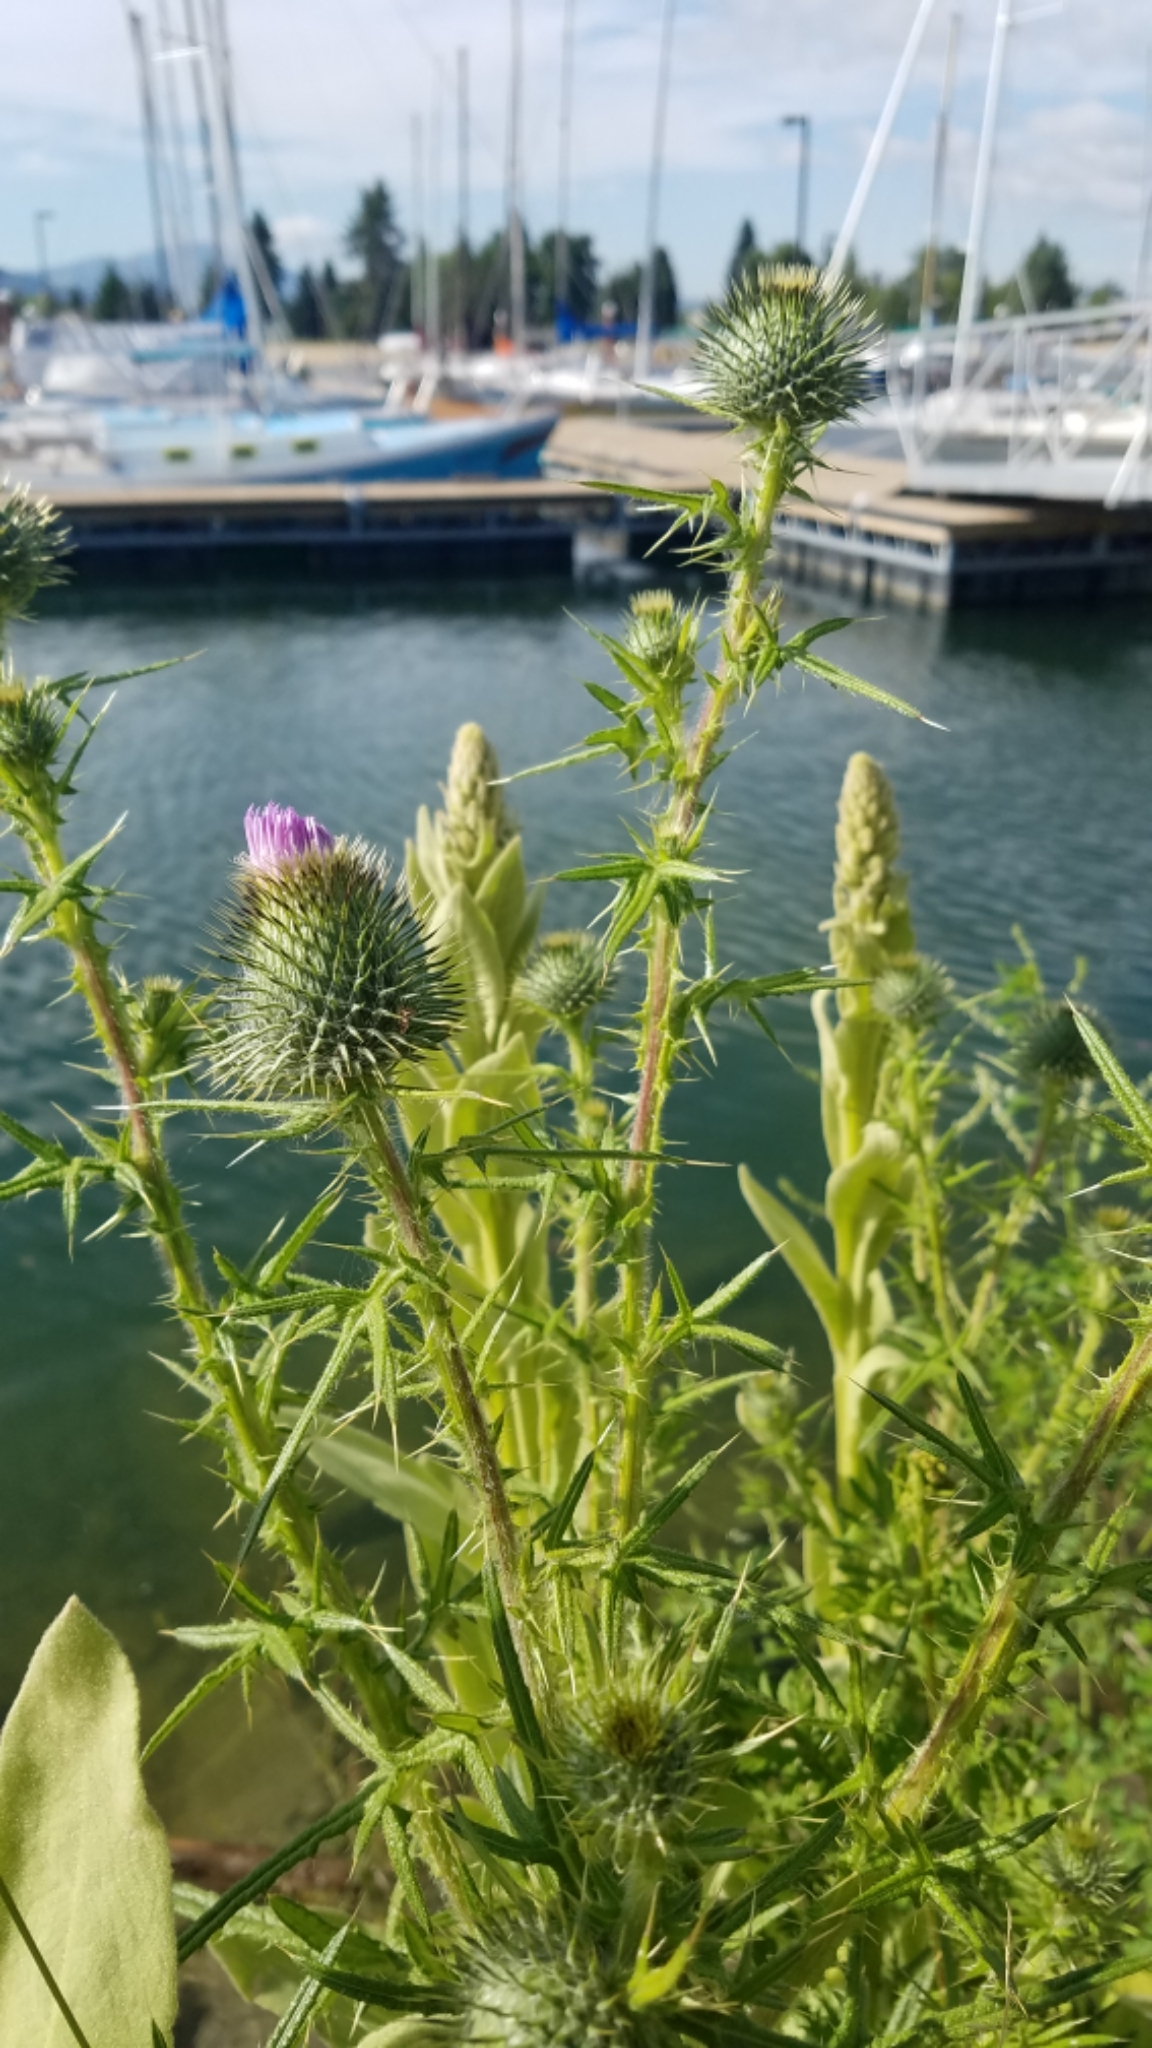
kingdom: Plantae
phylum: Tracheophyta
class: Magnoliopsida
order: Asterales
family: Asteraceae
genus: Cirsium
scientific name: Cirsium vulgare
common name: Bull thistle
